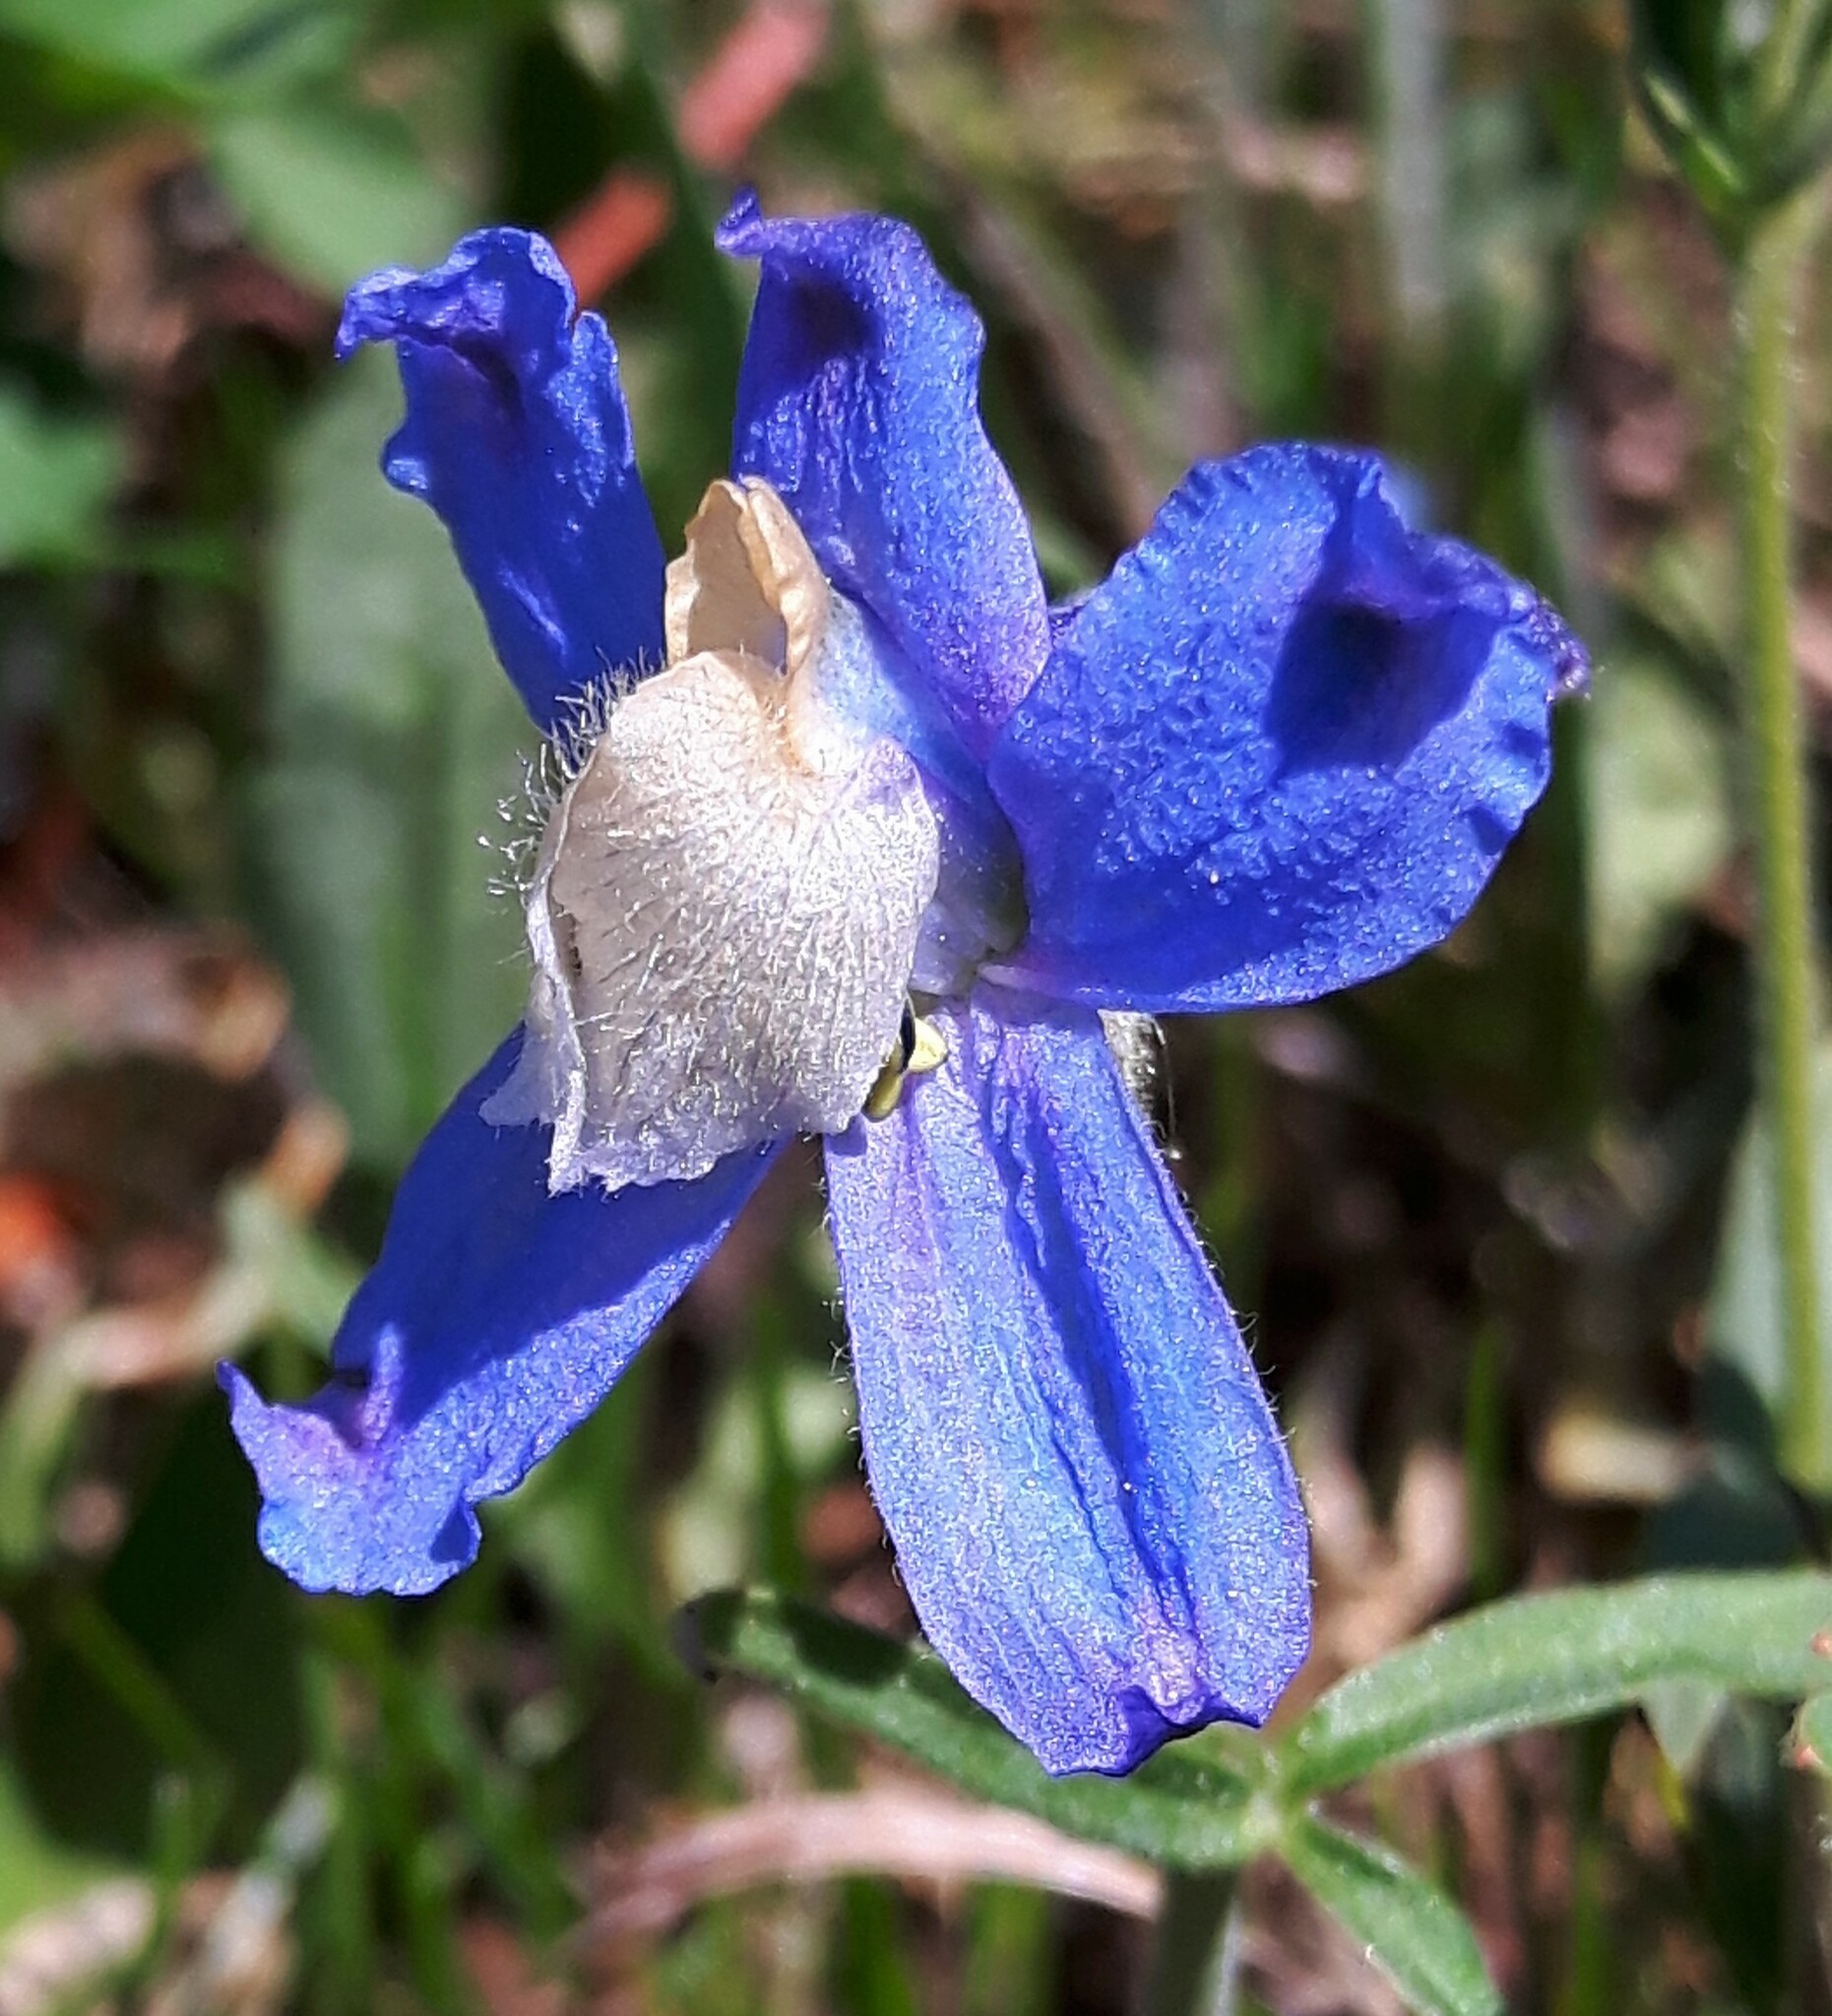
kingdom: Plantae
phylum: Tracheophyta
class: Magnoliopsida
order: Ranunculales
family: Ranunculaceae
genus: Delphinium
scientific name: Delphinium sutherlandii
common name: Sutherland's larkspur
